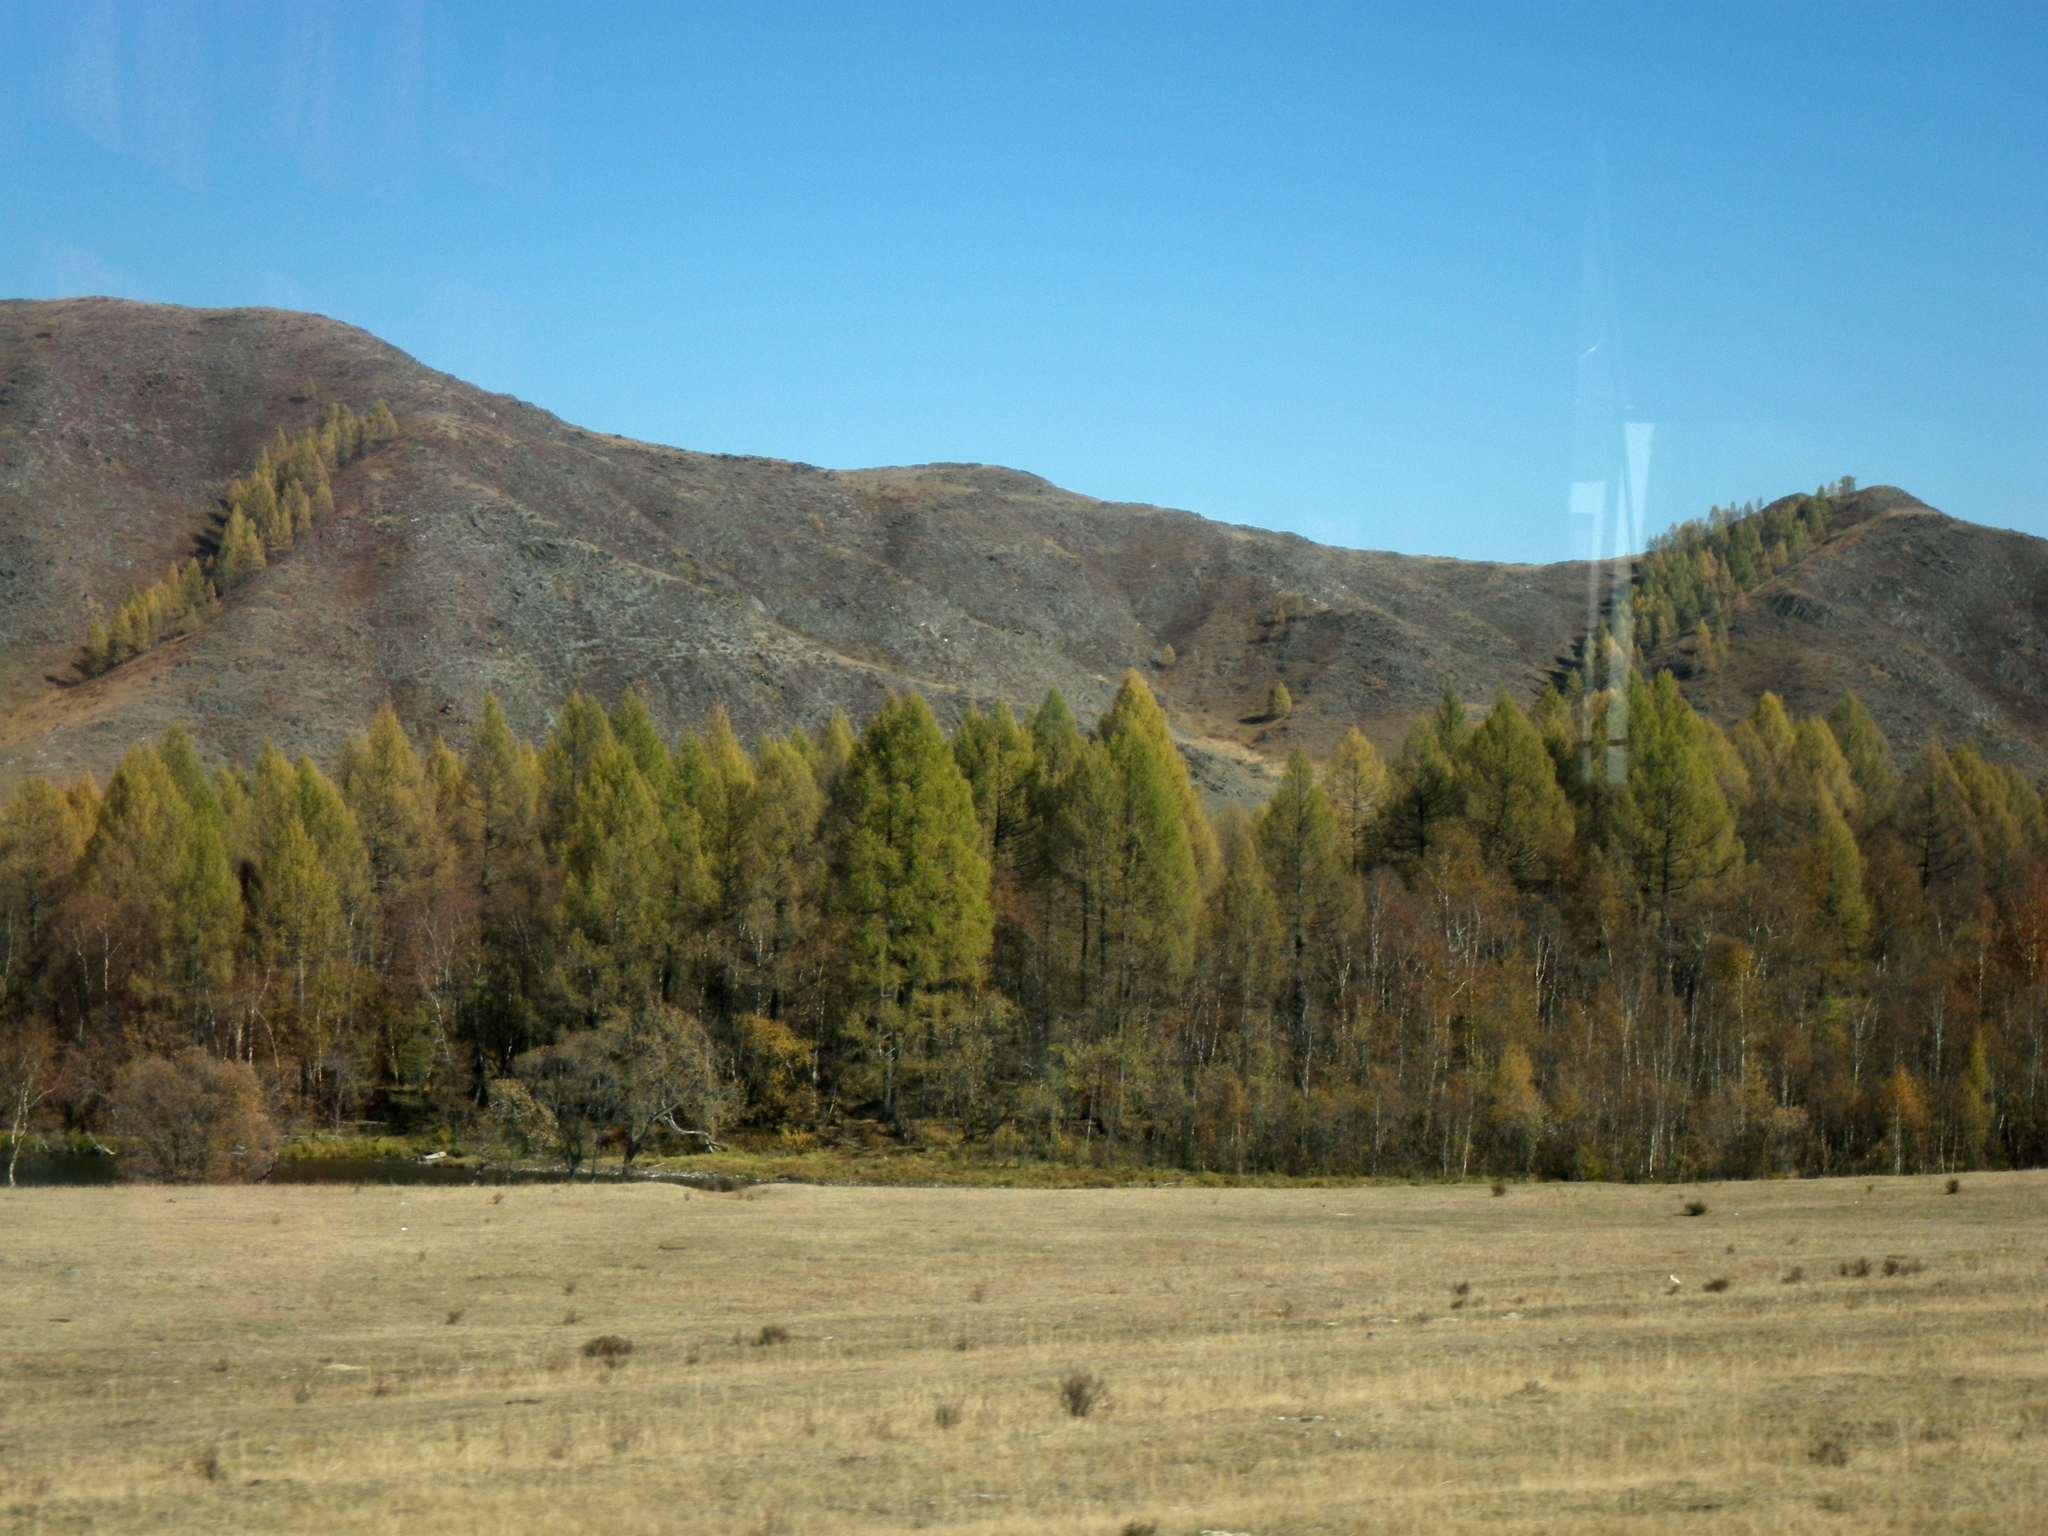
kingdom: Plantae
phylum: Tracheophyta
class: Pinopsida
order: Pinales
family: Pinaceae
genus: Larix
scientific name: Larix sibirica
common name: Siberian larch
